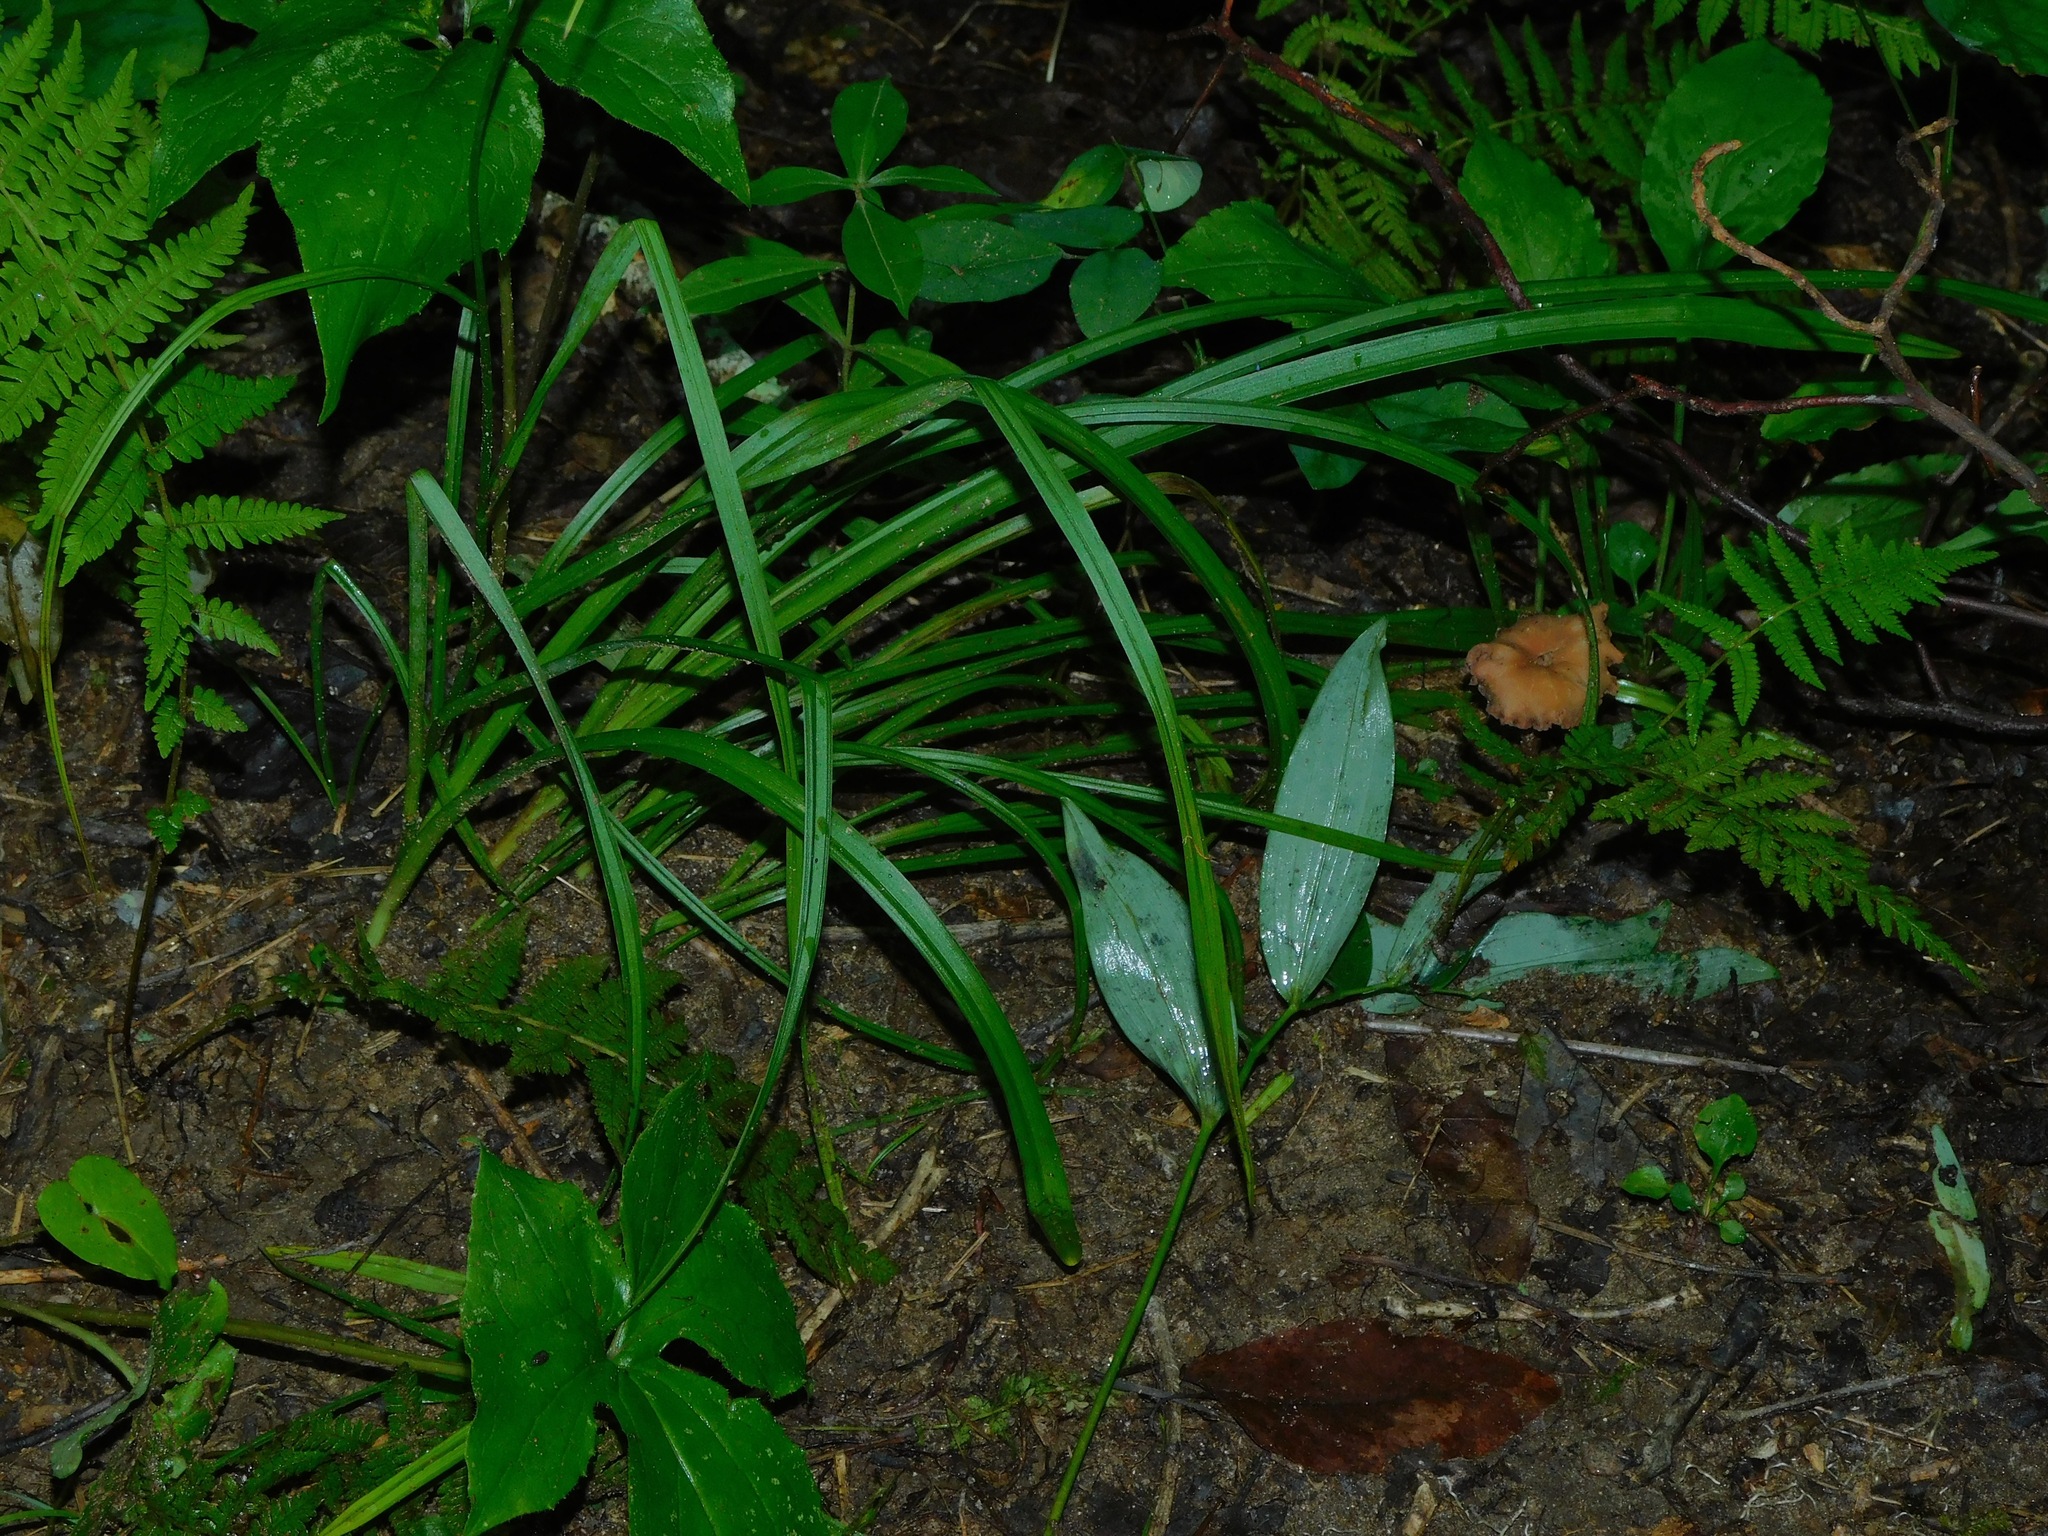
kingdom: Plantae
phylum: Tracheophyta
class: Liliopsida
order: Liliales
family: Melanthiaceae
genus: Stenanthium
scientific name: Stenanthium gramineum
